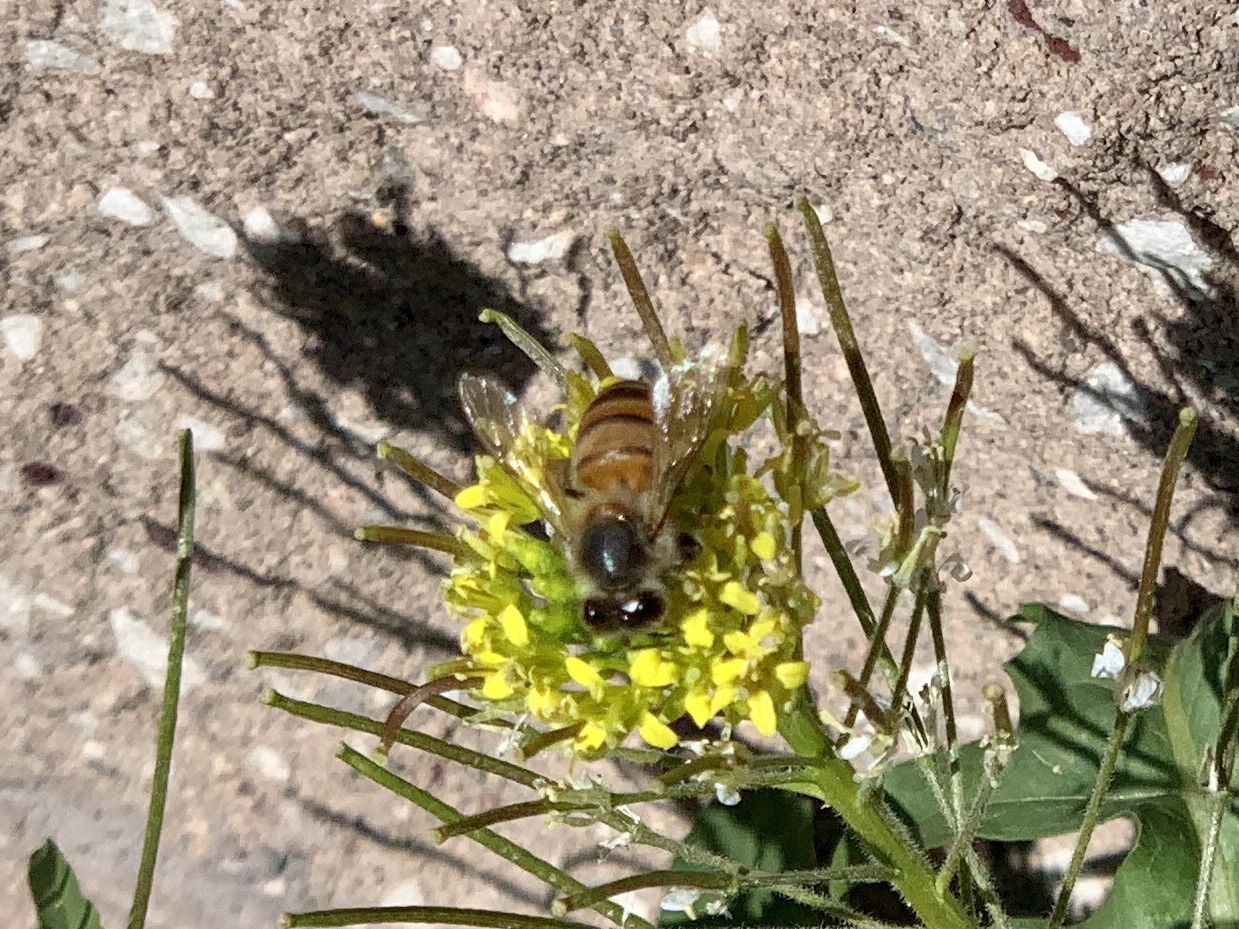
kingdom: Animalia
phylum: Arthropoda
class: Insecta
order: Hymenoptera
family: Apidae
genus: Apis
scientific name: Apis mellifera
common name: Honey bee
